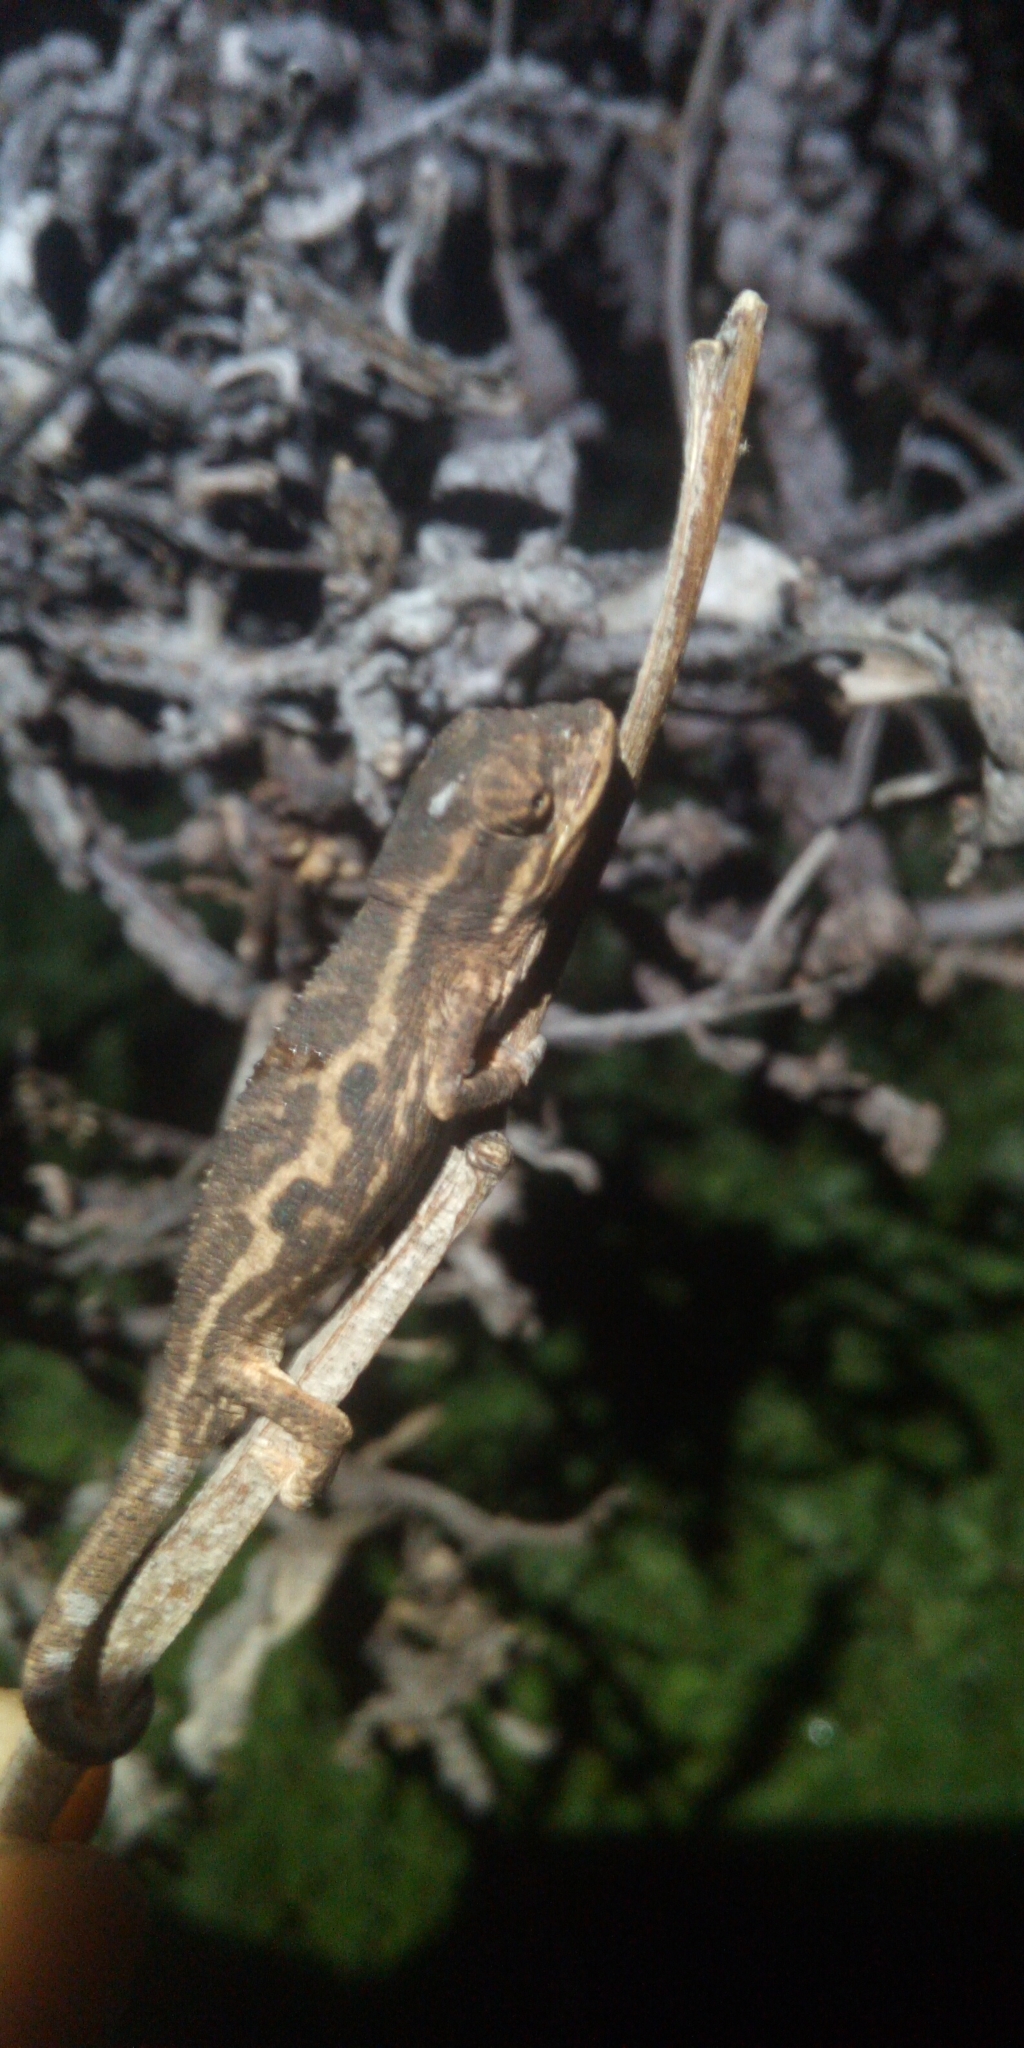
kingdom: Animalia
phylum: Chordata
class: Squamata
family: Chamaeleonidae
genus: Bradypodion
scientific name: Bradypodion pumilum
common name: Cape dwarf chameleon
